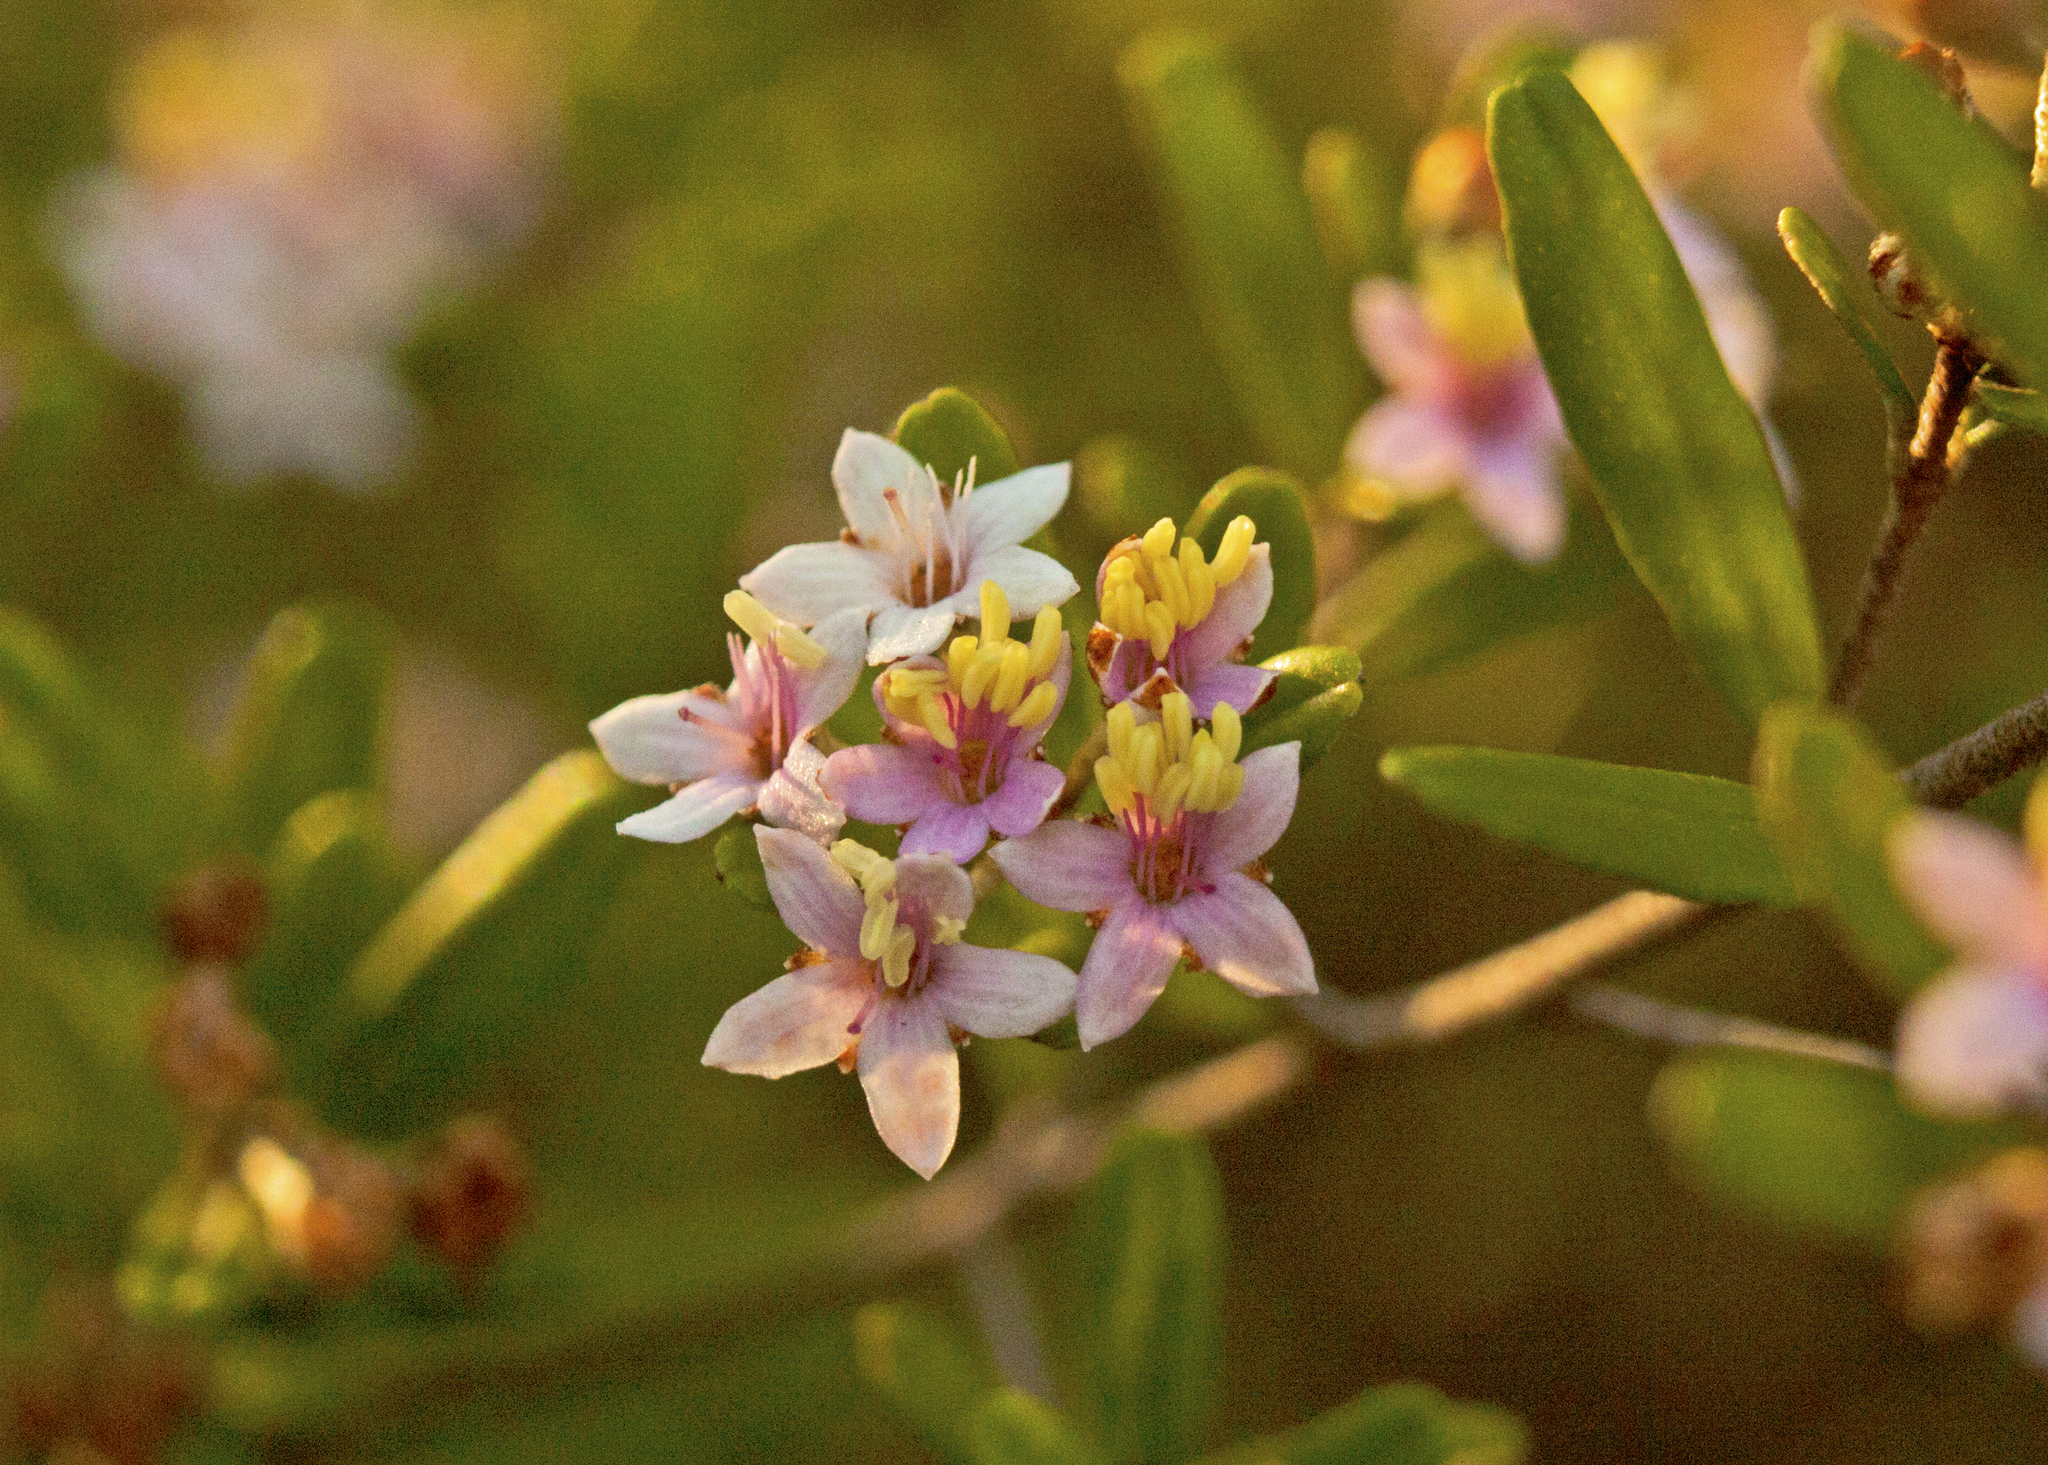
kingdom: Plantae
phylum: Tracheophyta
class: Magnoliopsida
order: Sapindales
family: Rutaceae
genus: Phebalium
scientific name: Phebalium woombye
